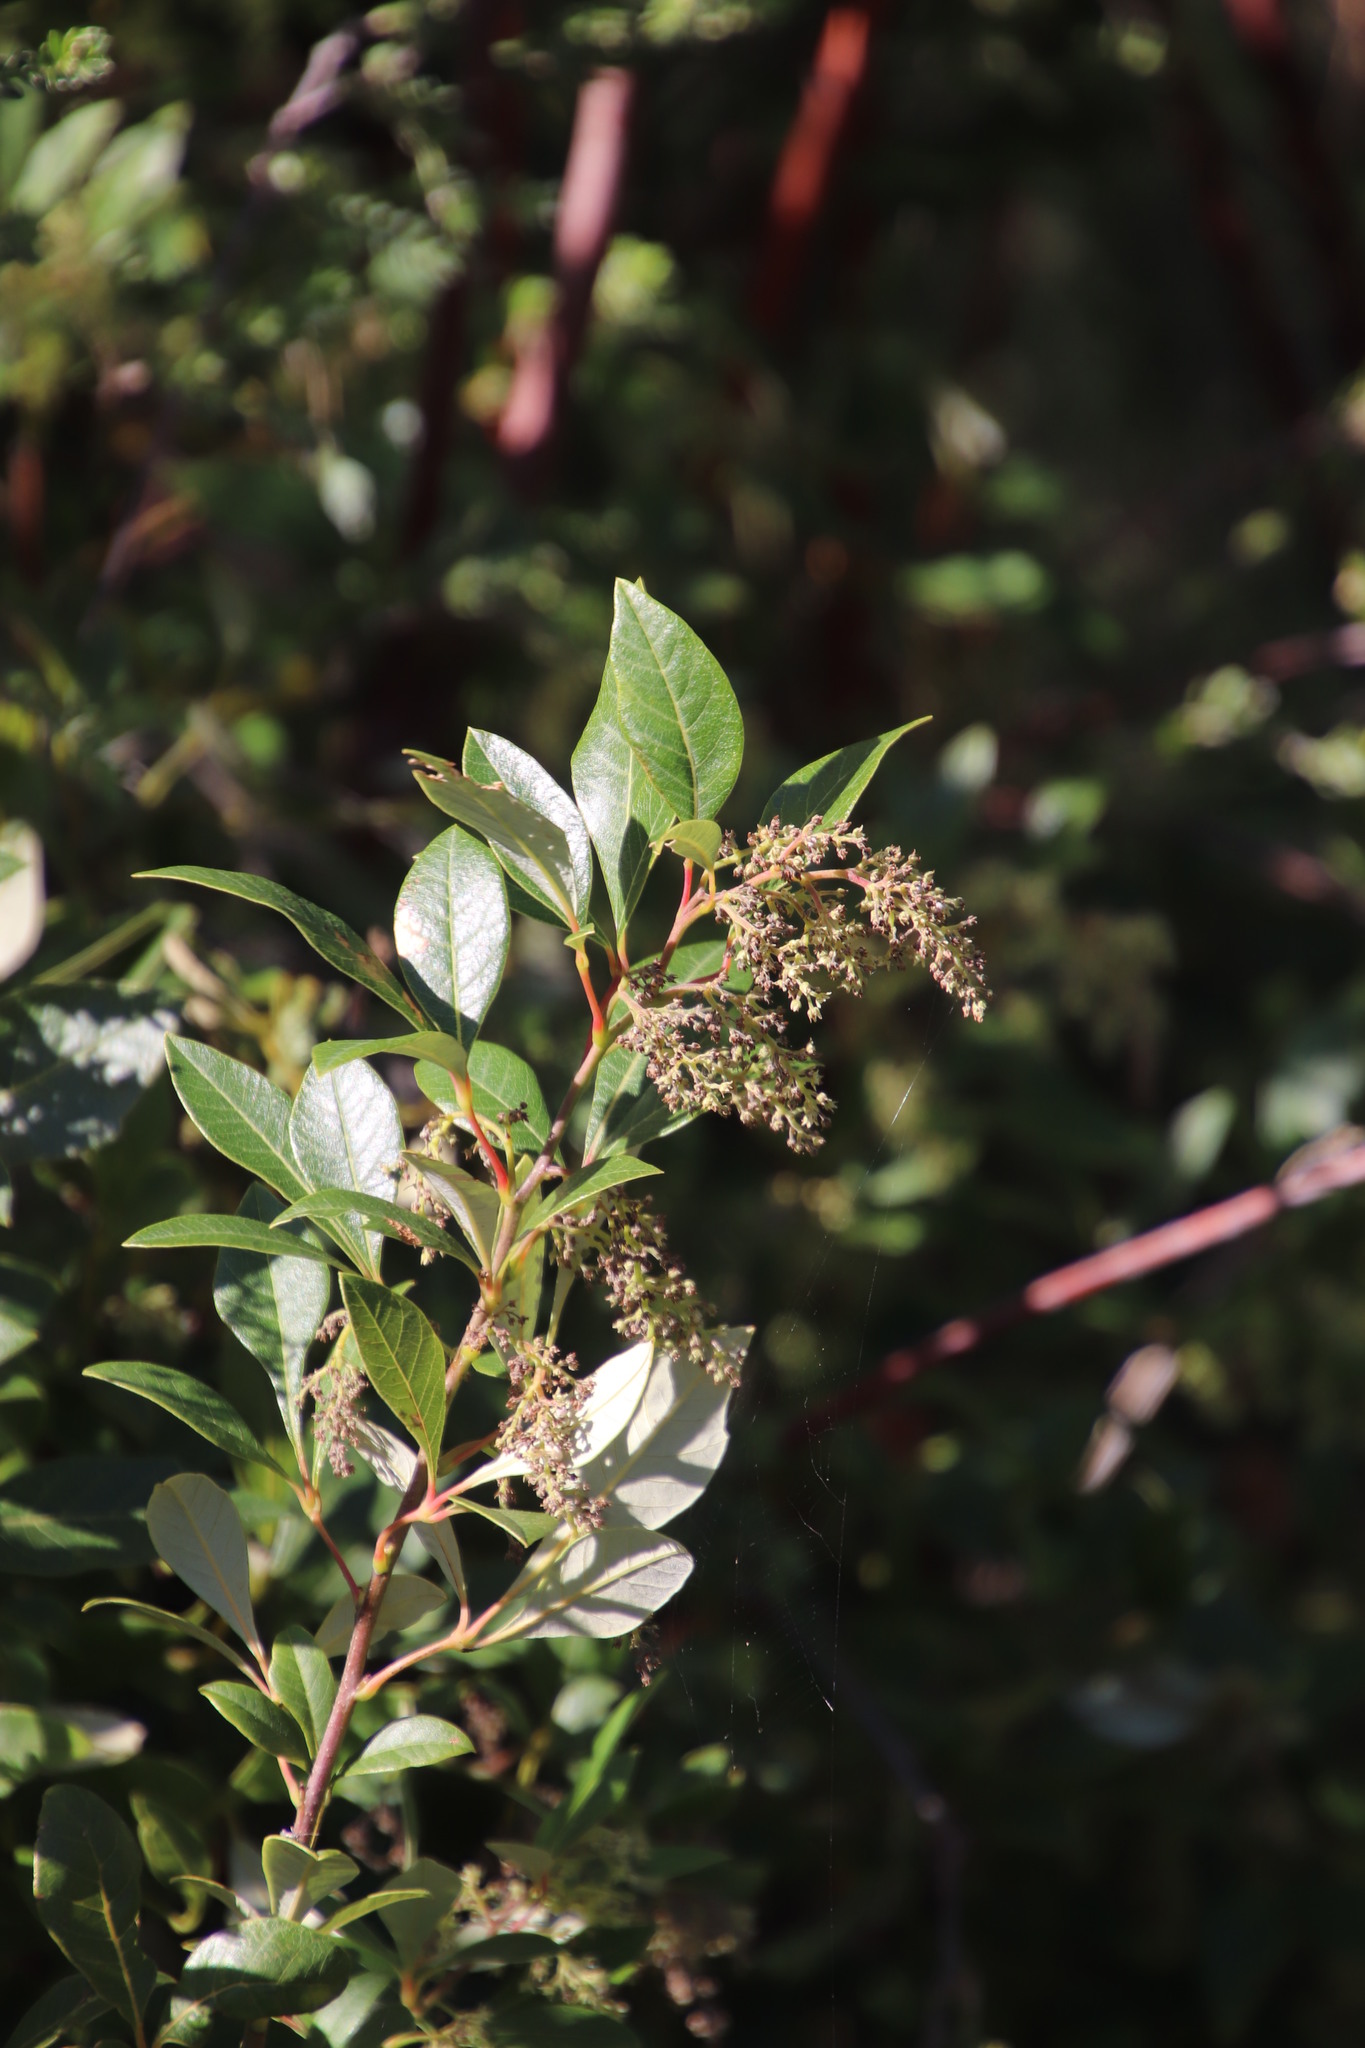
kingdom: Plantae
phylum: Tracheophyta
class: Magnoliopsida
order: Sapindales
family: Anacardiaceae
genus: Searsia
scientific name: Searsia tomentosa
